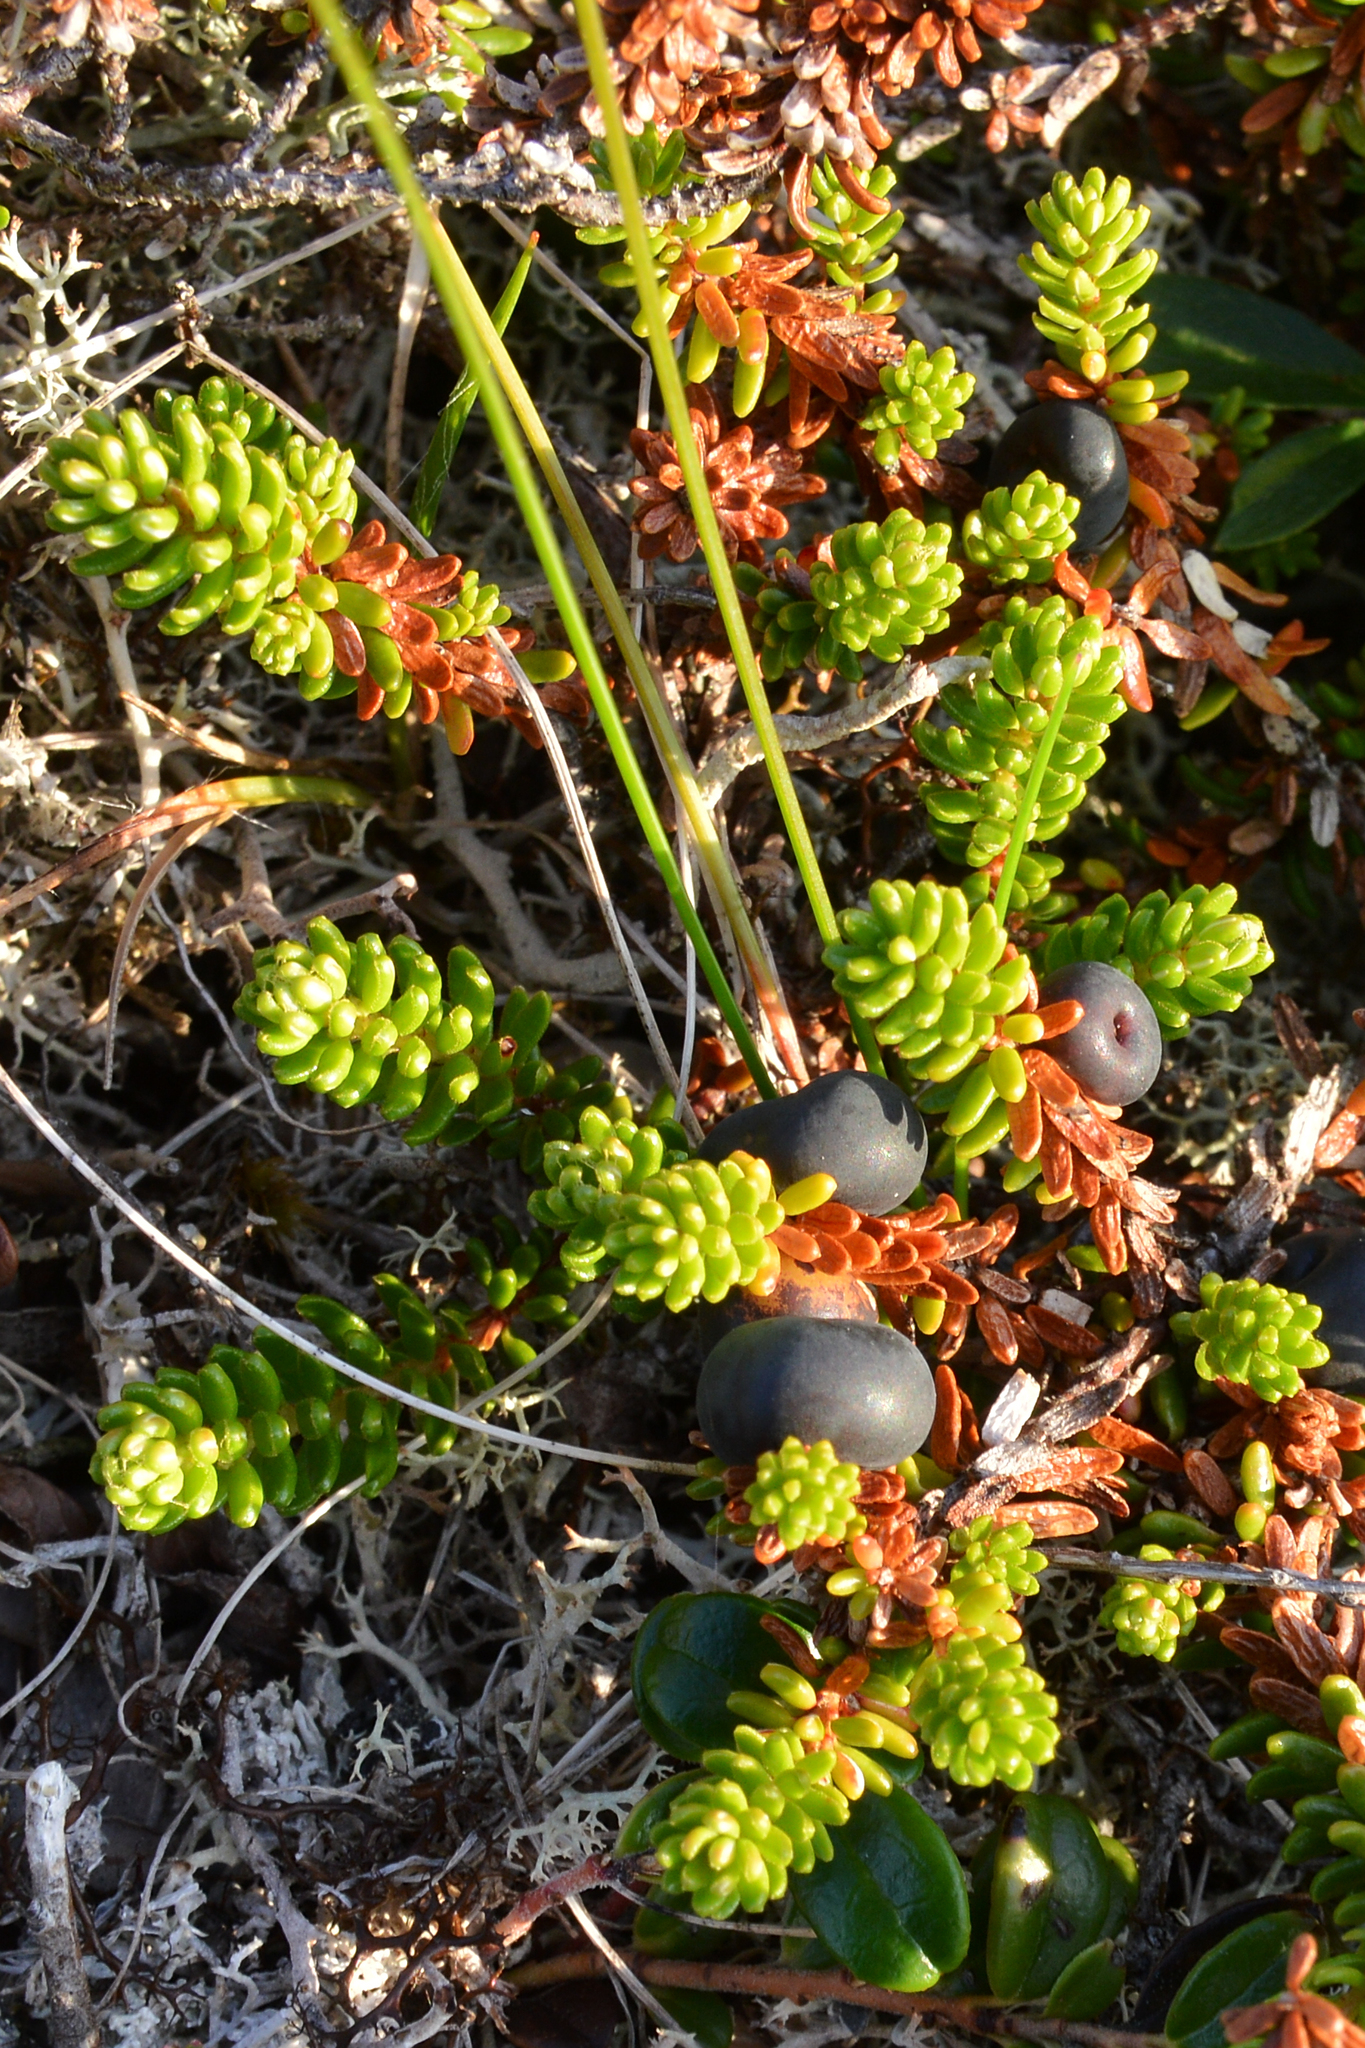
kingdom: Plantae
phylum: Tracheophyta
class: Magnoliopsida
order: Ericales
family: Ericaceae
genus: Empetrum
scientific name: Empetrum nigrum
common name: Black crowberry
